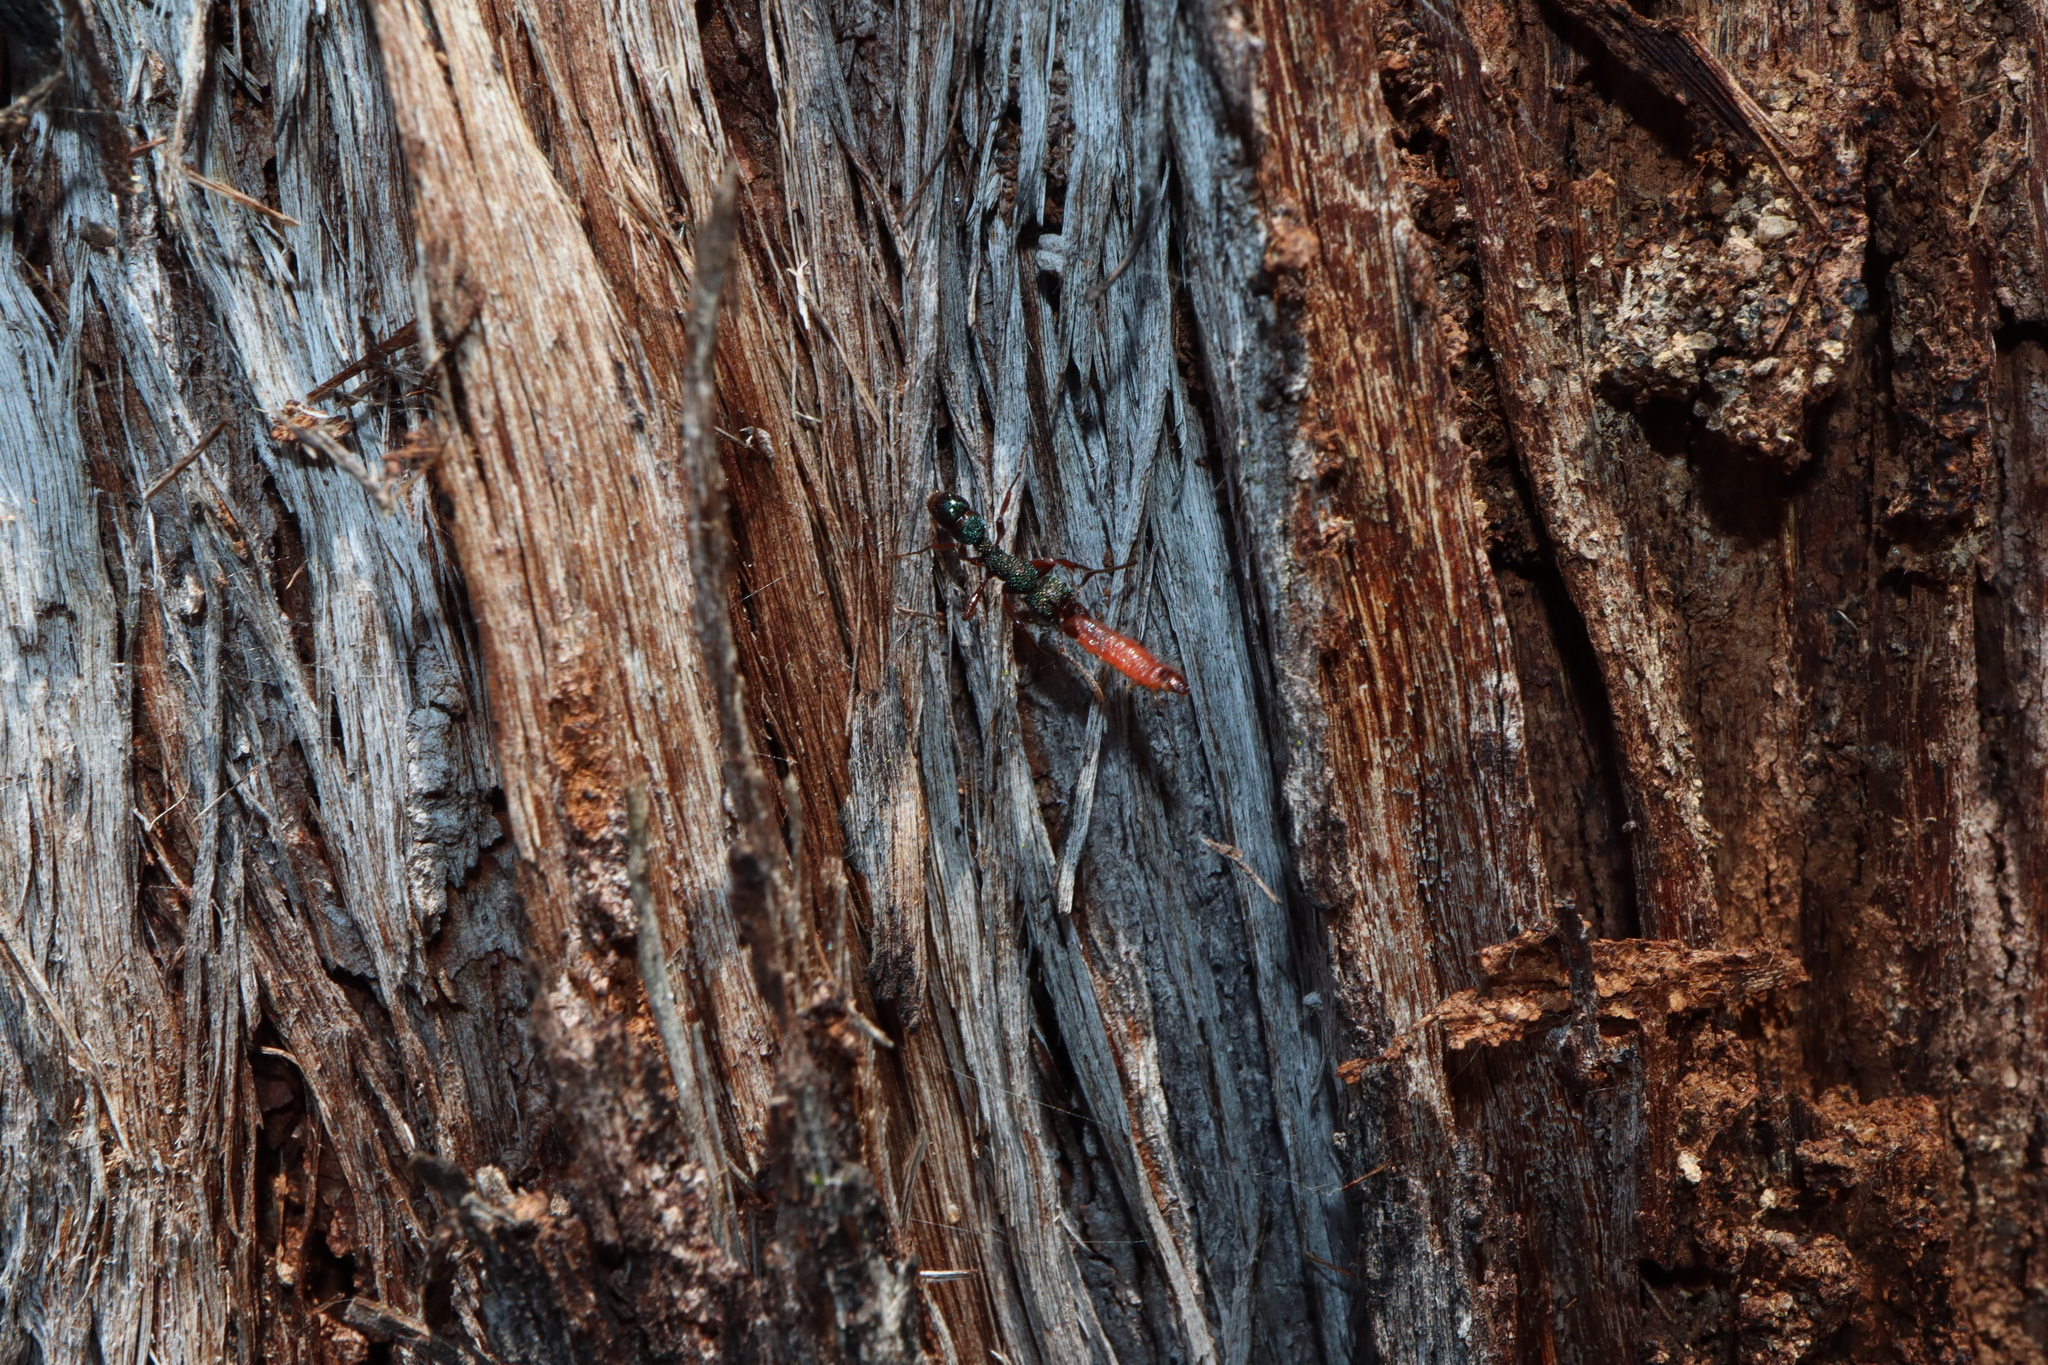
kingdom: Animalia
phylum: Arthropoda
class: Insecta
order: Hymenoptera
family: Formicidae
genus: Rhytidoponera
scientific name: Rhytidoponera aspera
